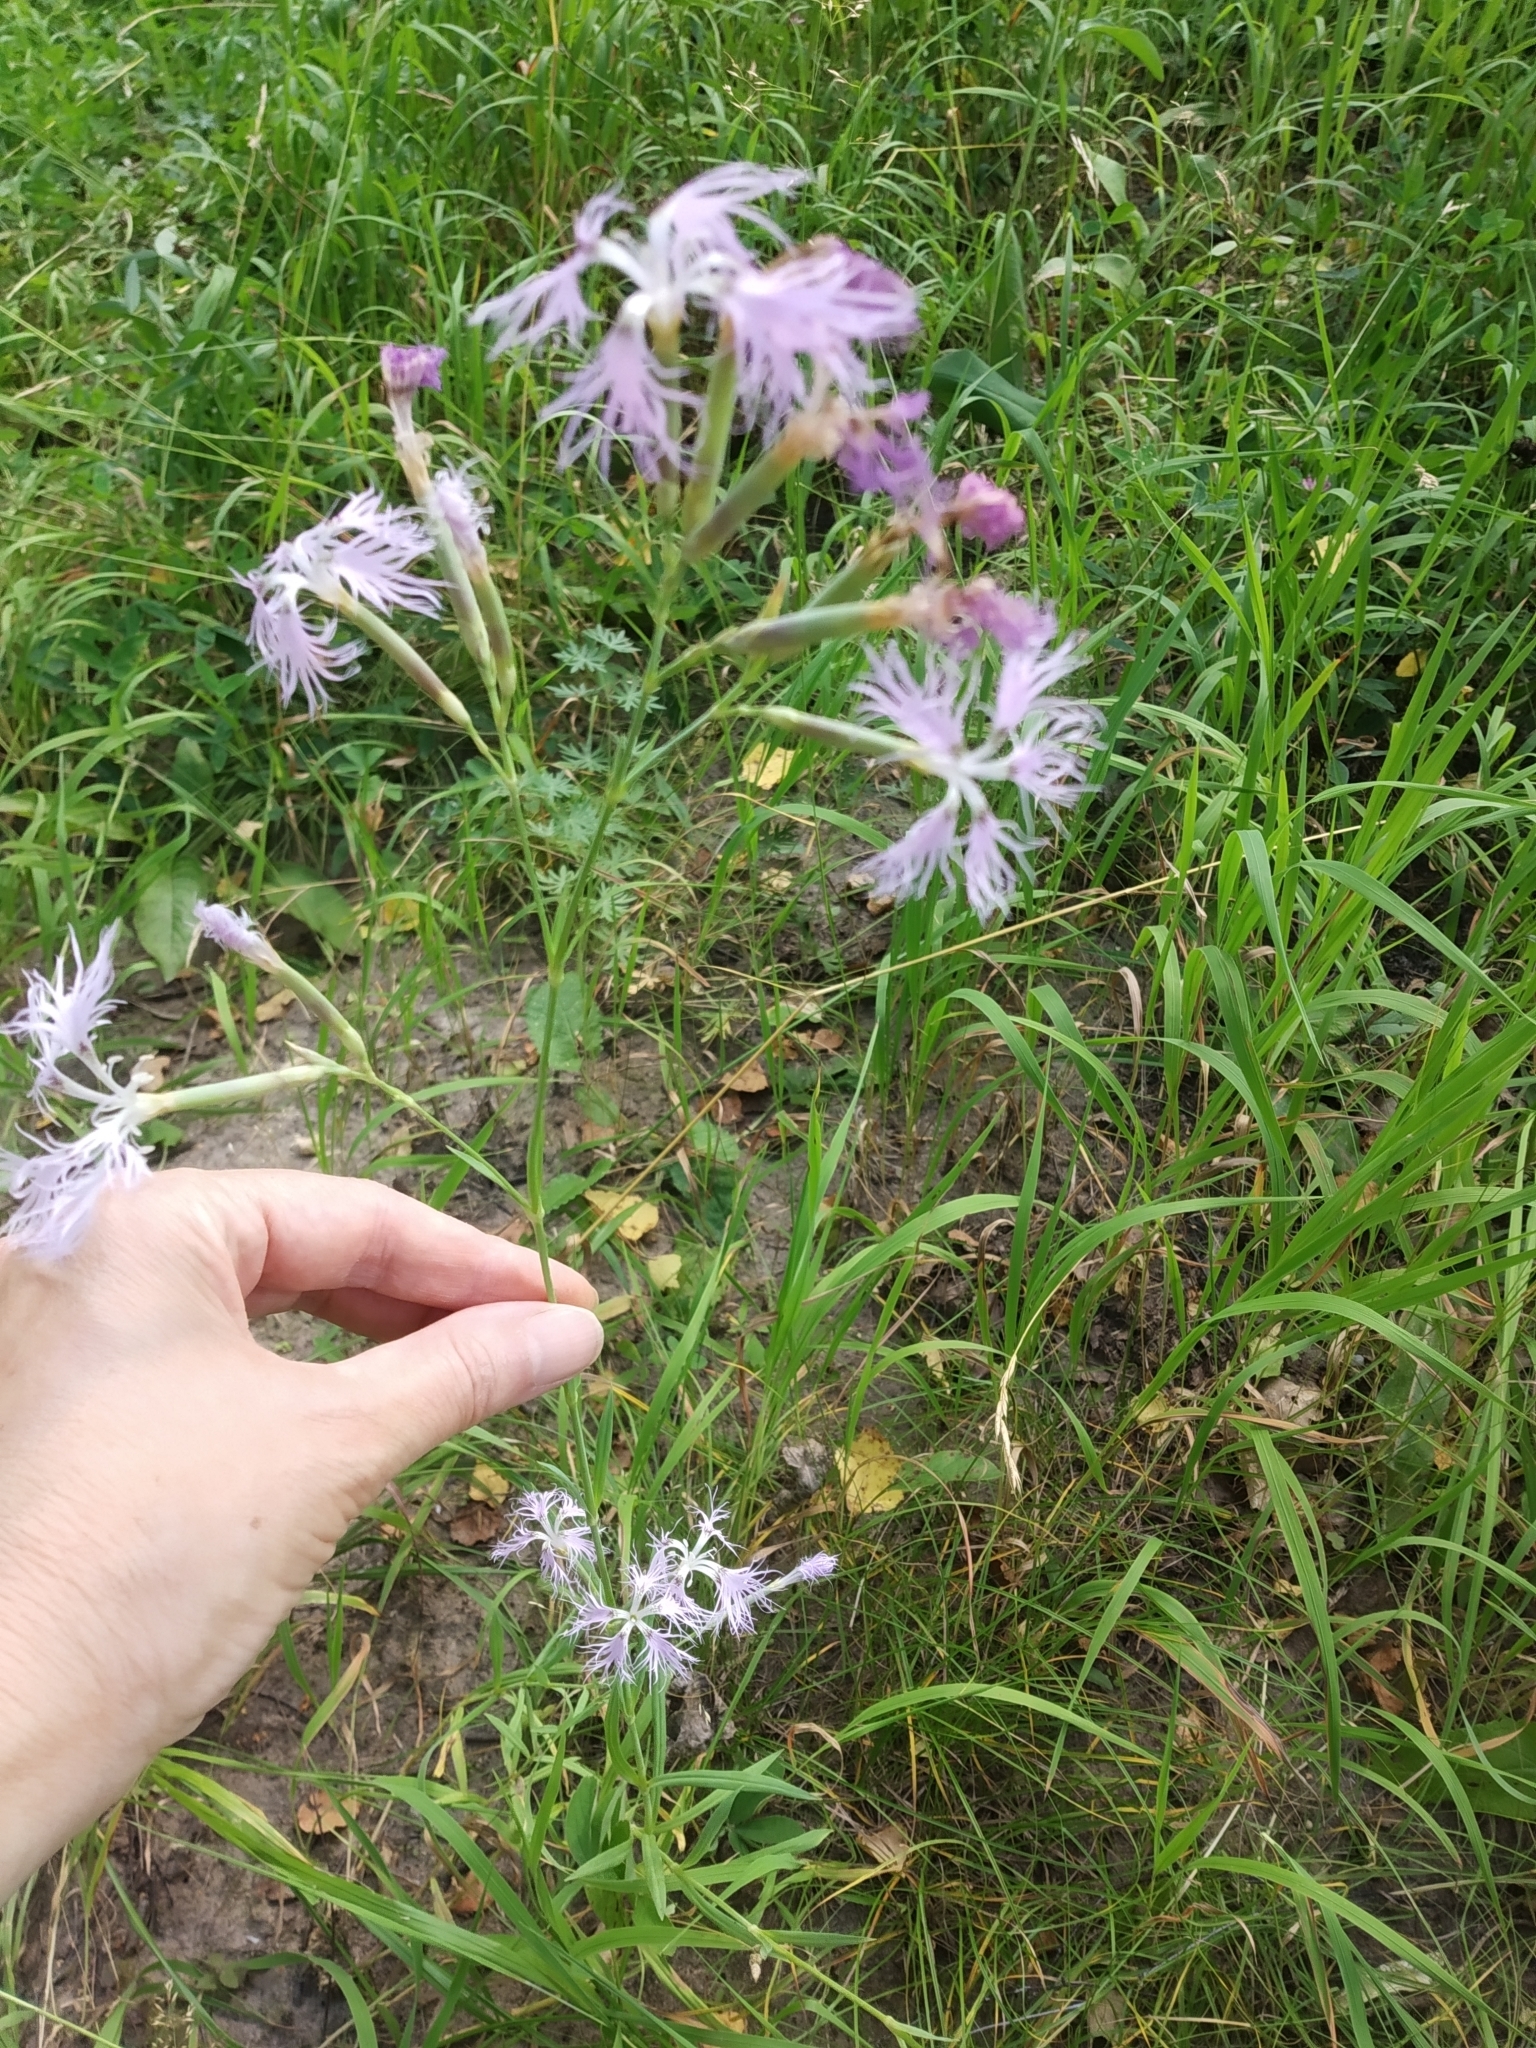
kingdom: Plantae
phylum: Tracheophyta
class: Magnoliopsida
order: Caryophyllales
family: Caryophyllaceae
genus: Dianthus
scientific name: Dianthus superbus
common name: Fringed pink
